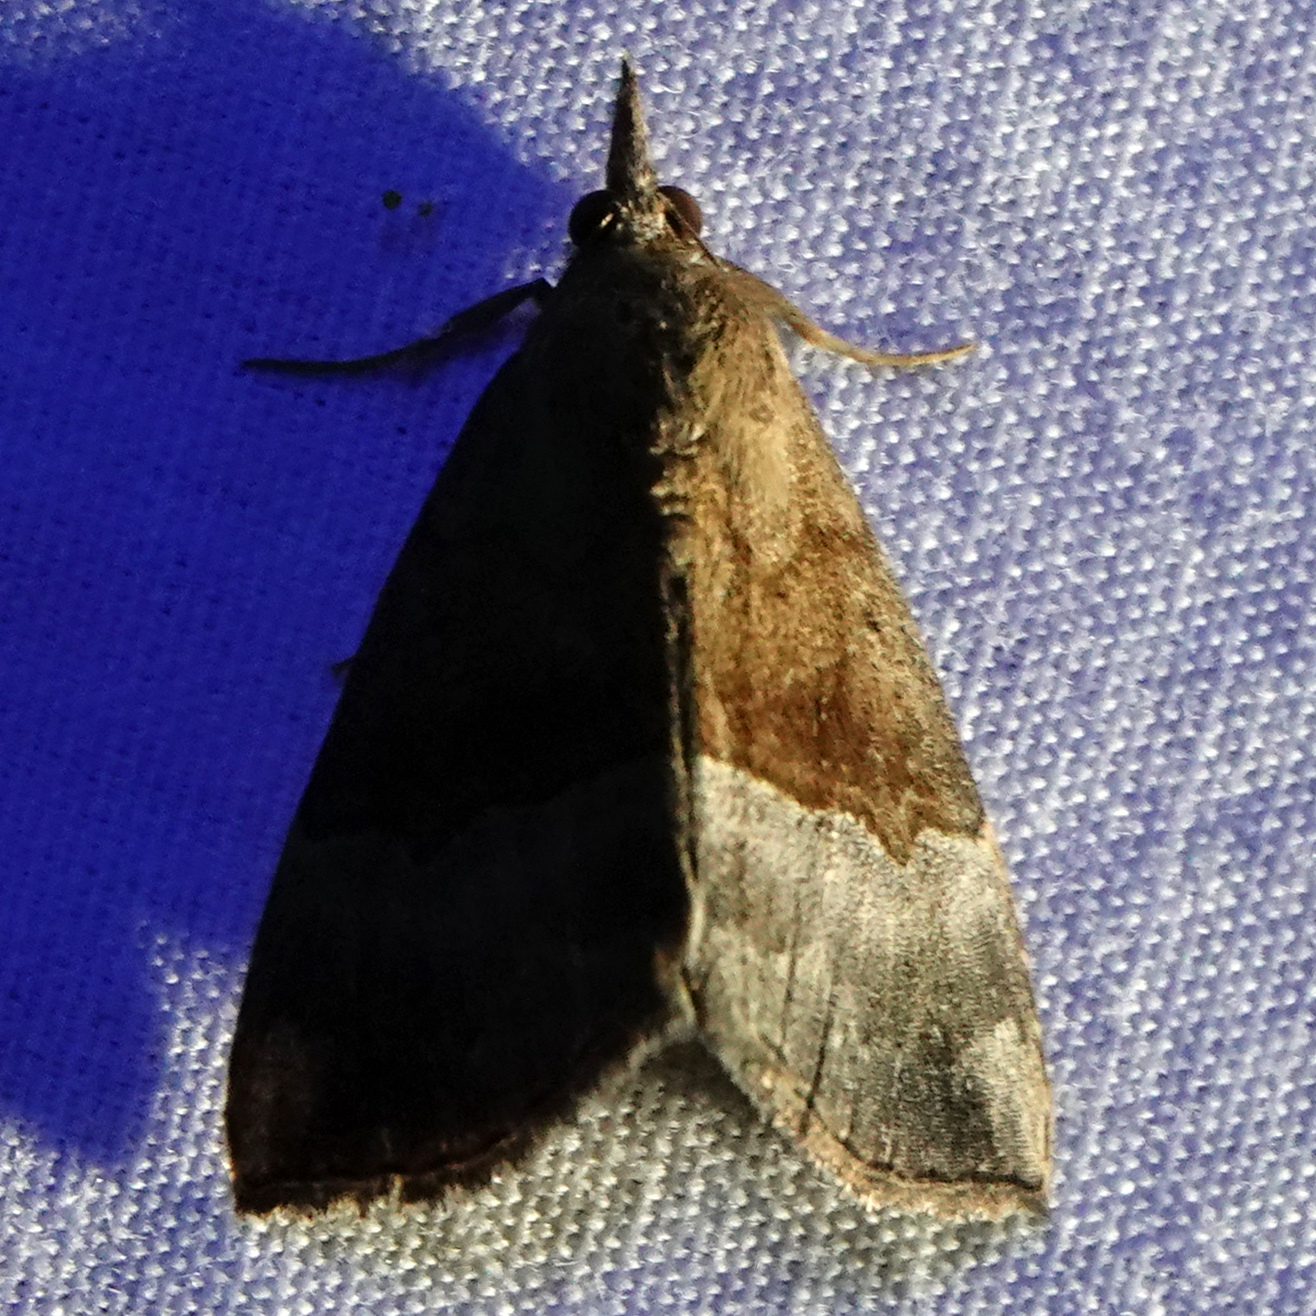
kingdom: Animalia
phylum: Arthropoda
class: Insecta
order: Lepidoptera
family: Erebidae
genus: Hypena
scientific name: Hypena madefactalis
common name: Gray-edged snout
